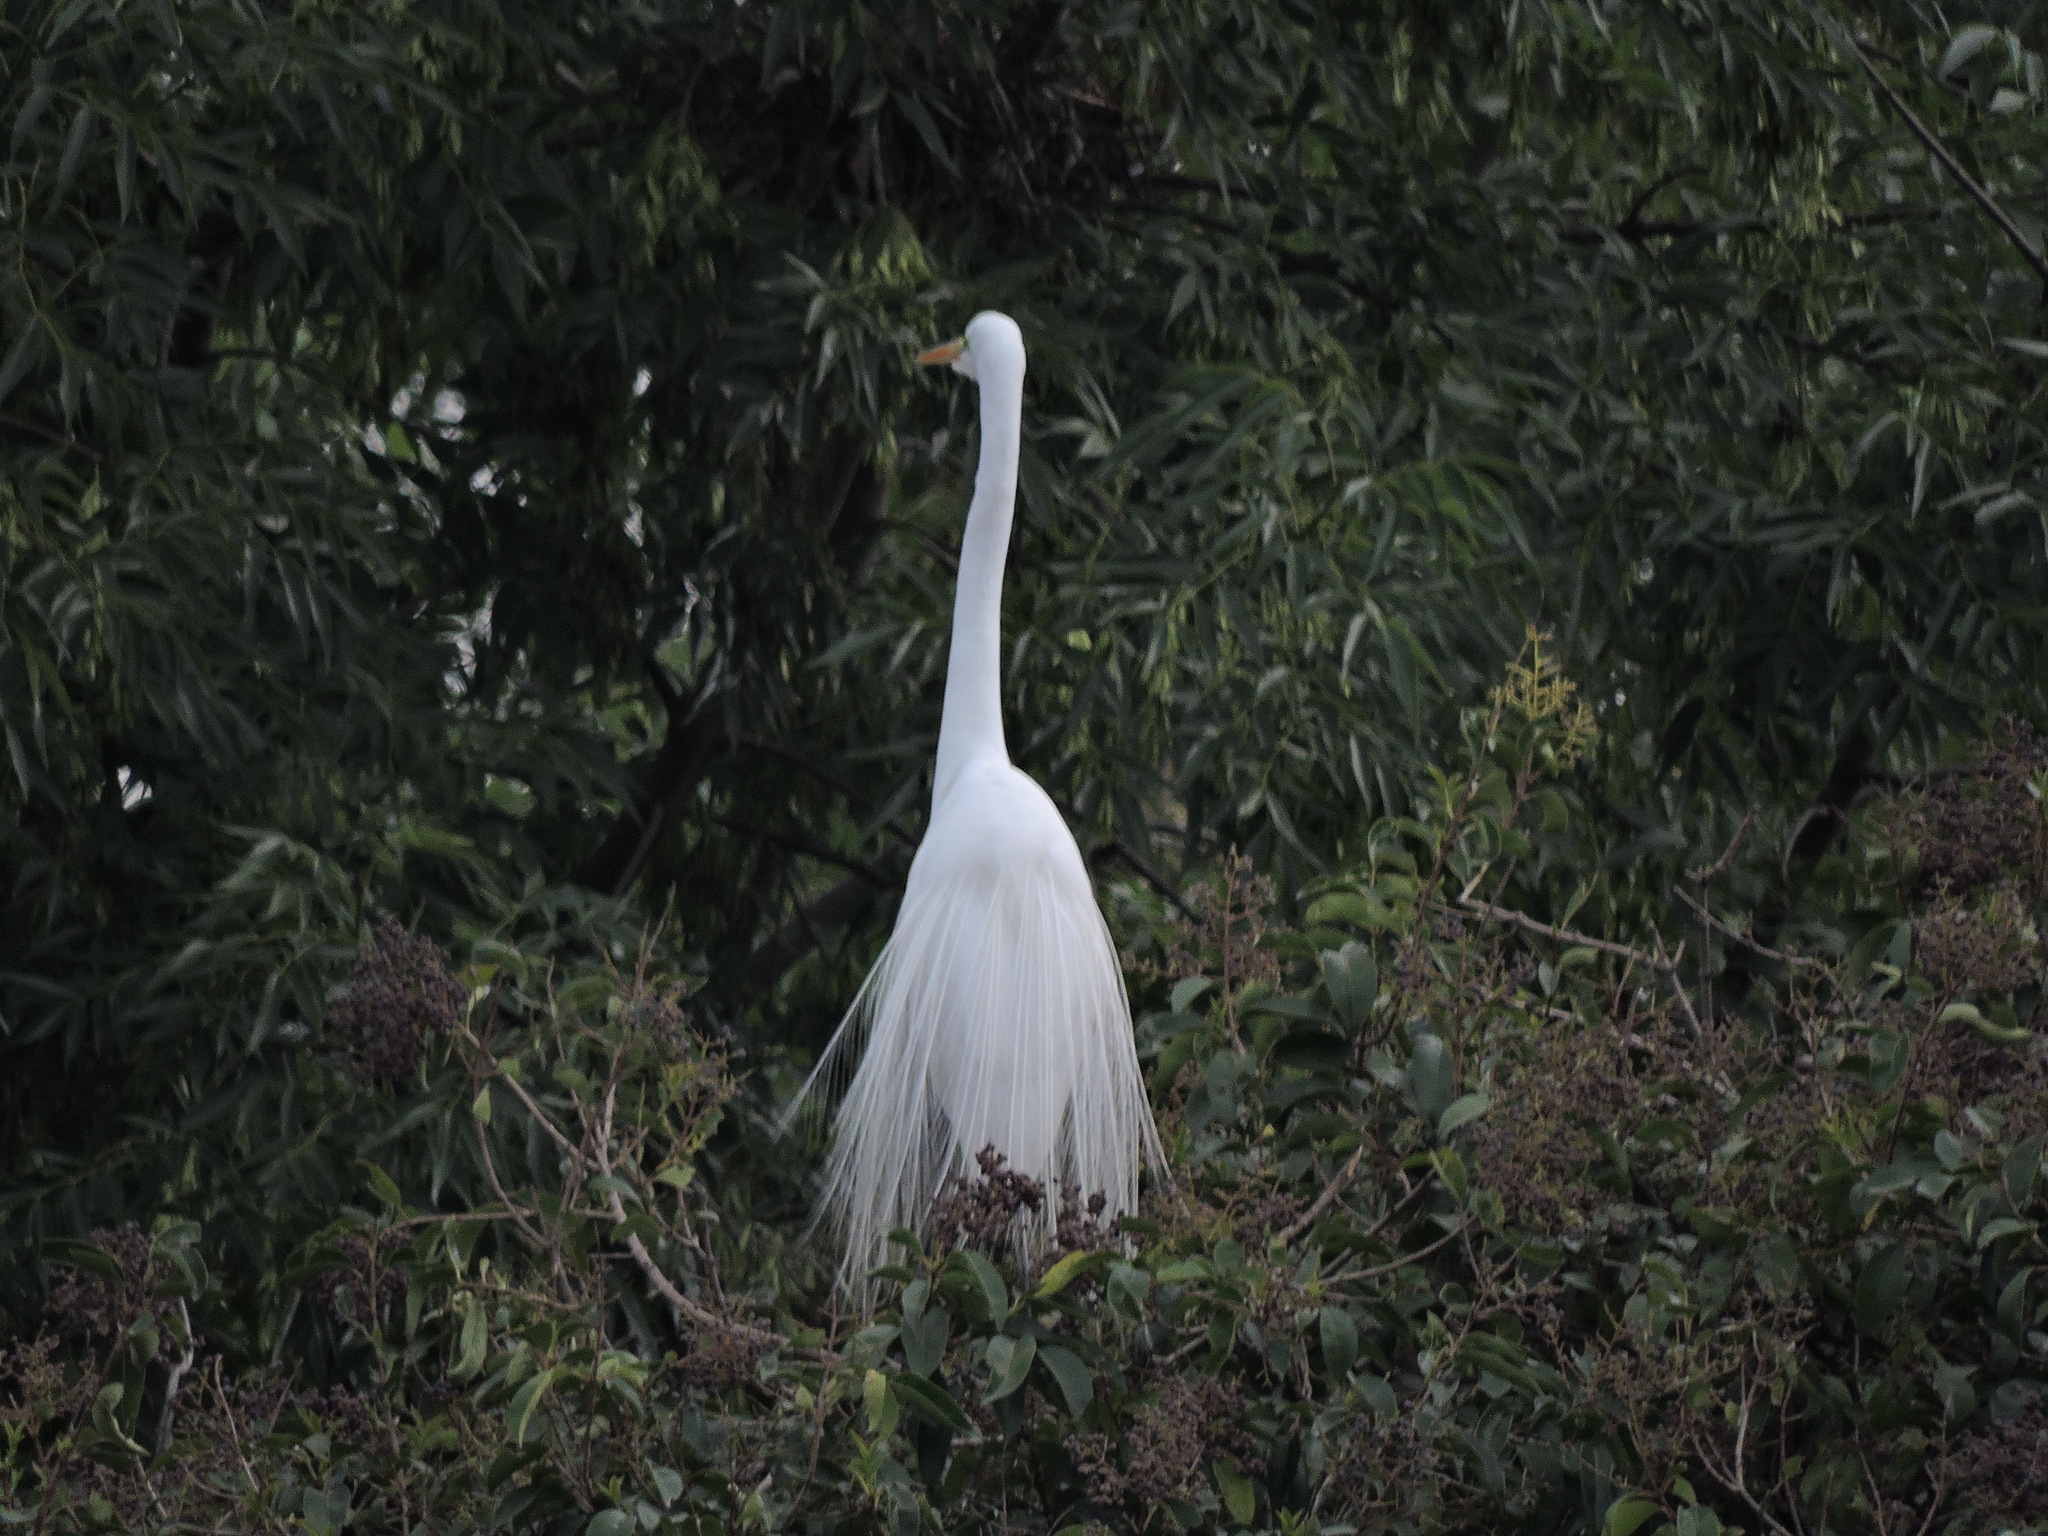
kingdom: Animalia
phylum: Chordata
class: Aves
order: Pelecaniformes
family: Ardeidae
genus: Ardea
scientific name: Ardea alba
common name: Great egret
